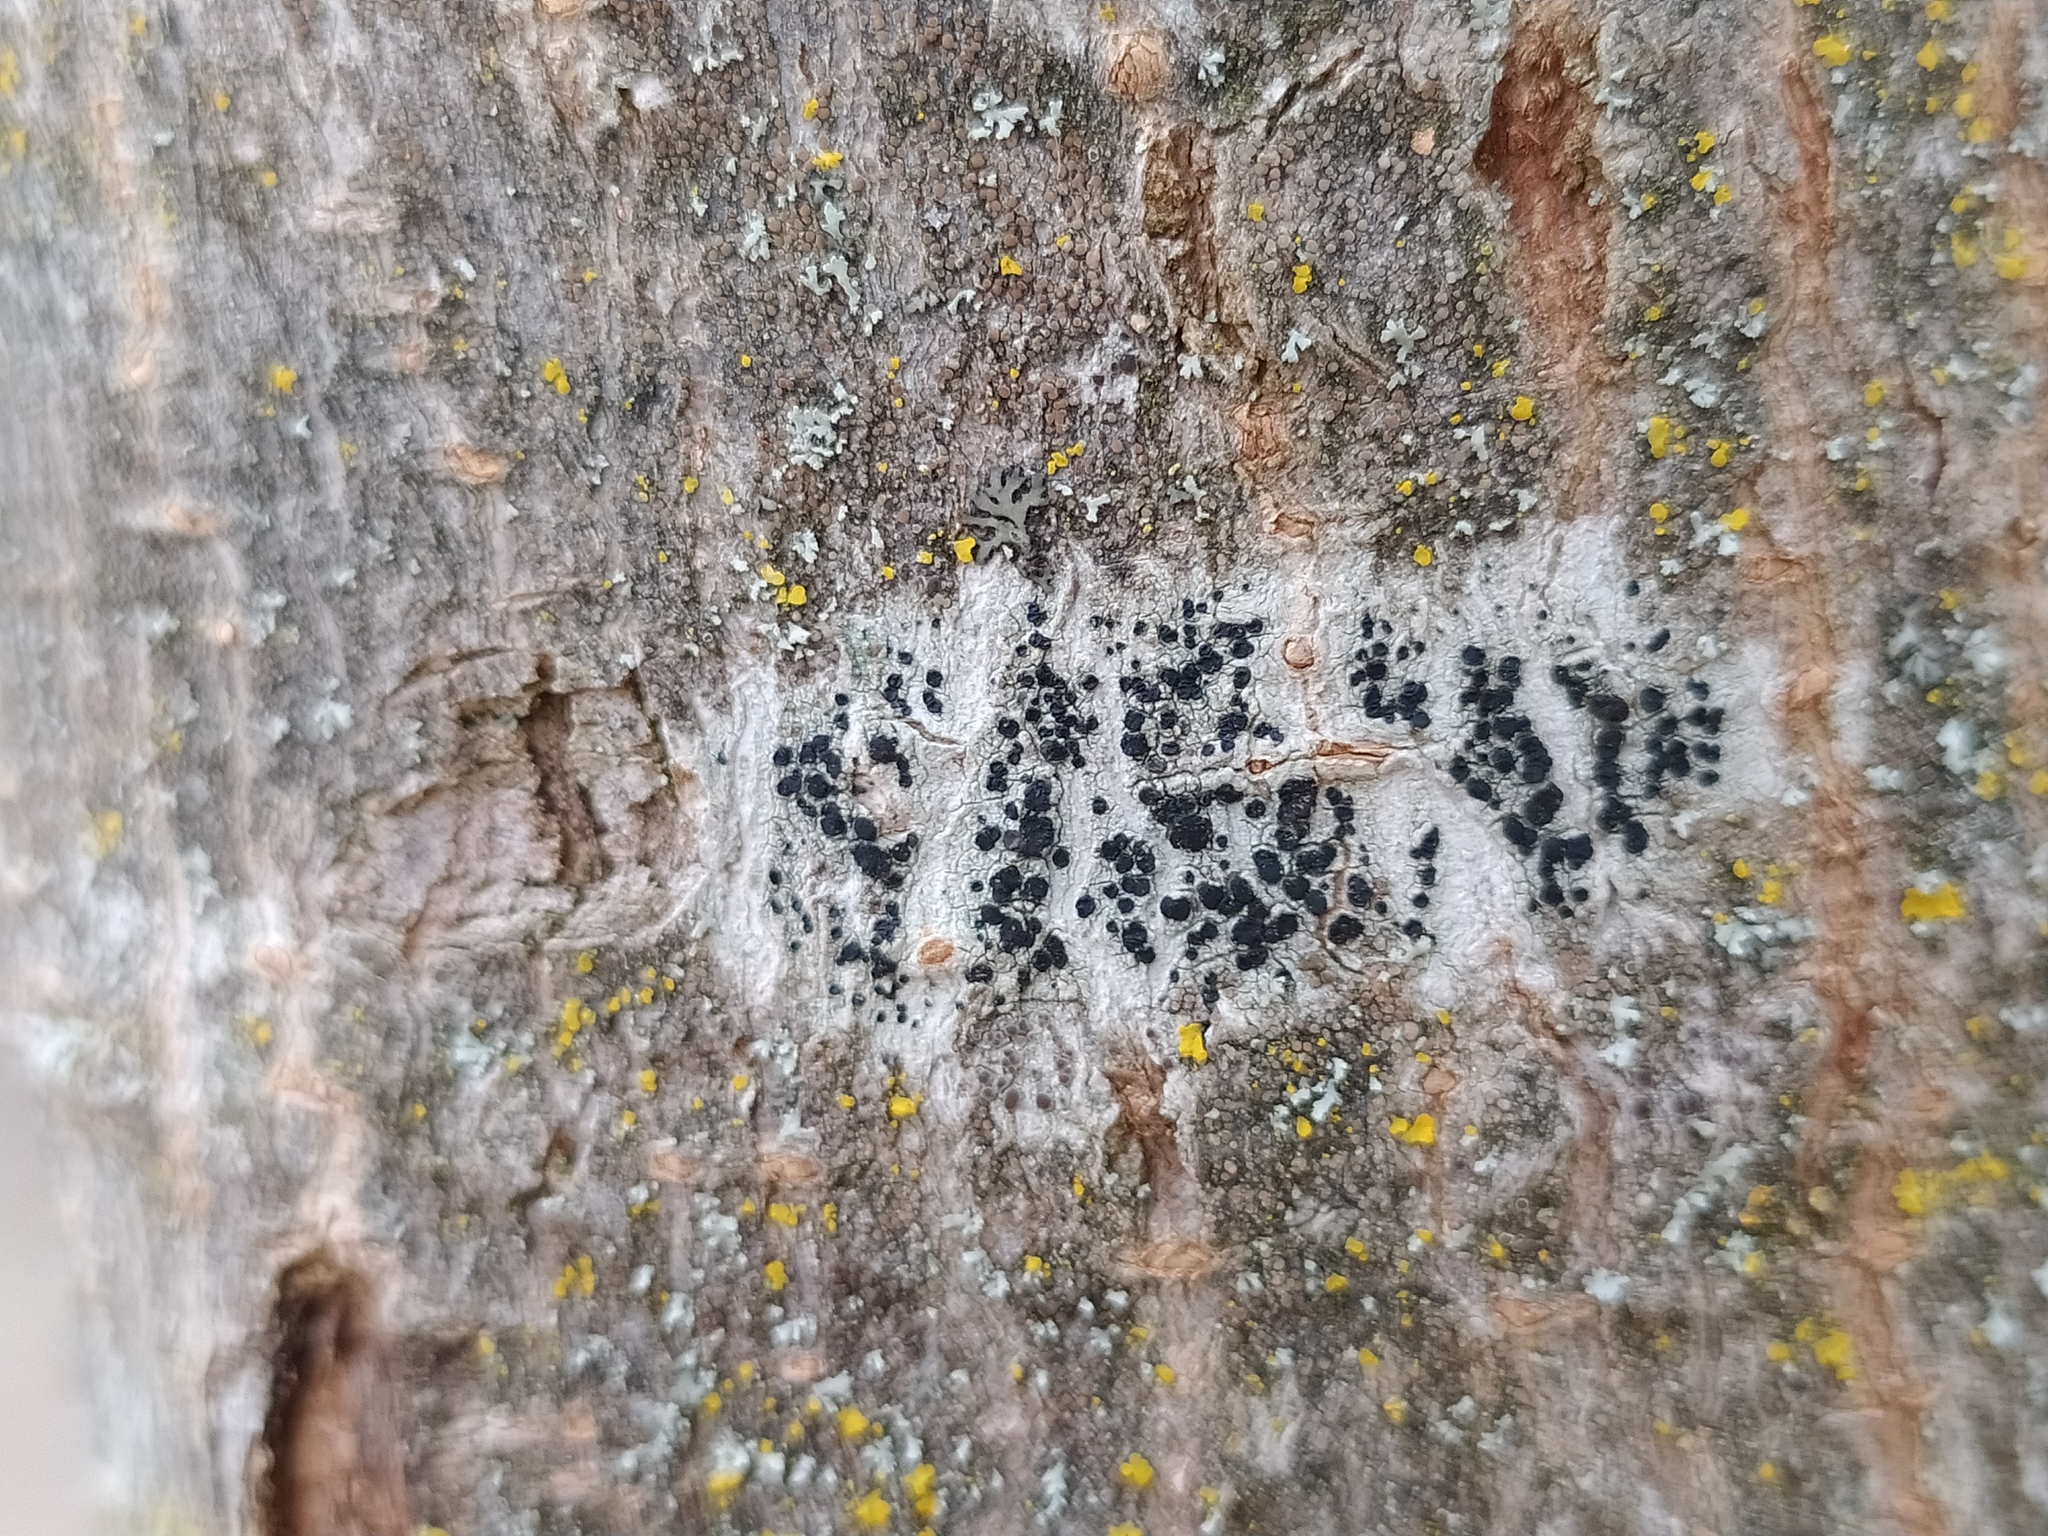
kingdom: Fungi
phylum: Ascomycota
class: Lecanoromycetes
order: Lecanorales
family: Lecanoraceae
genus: Lecidella
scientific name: Lecidella elaeochroma
